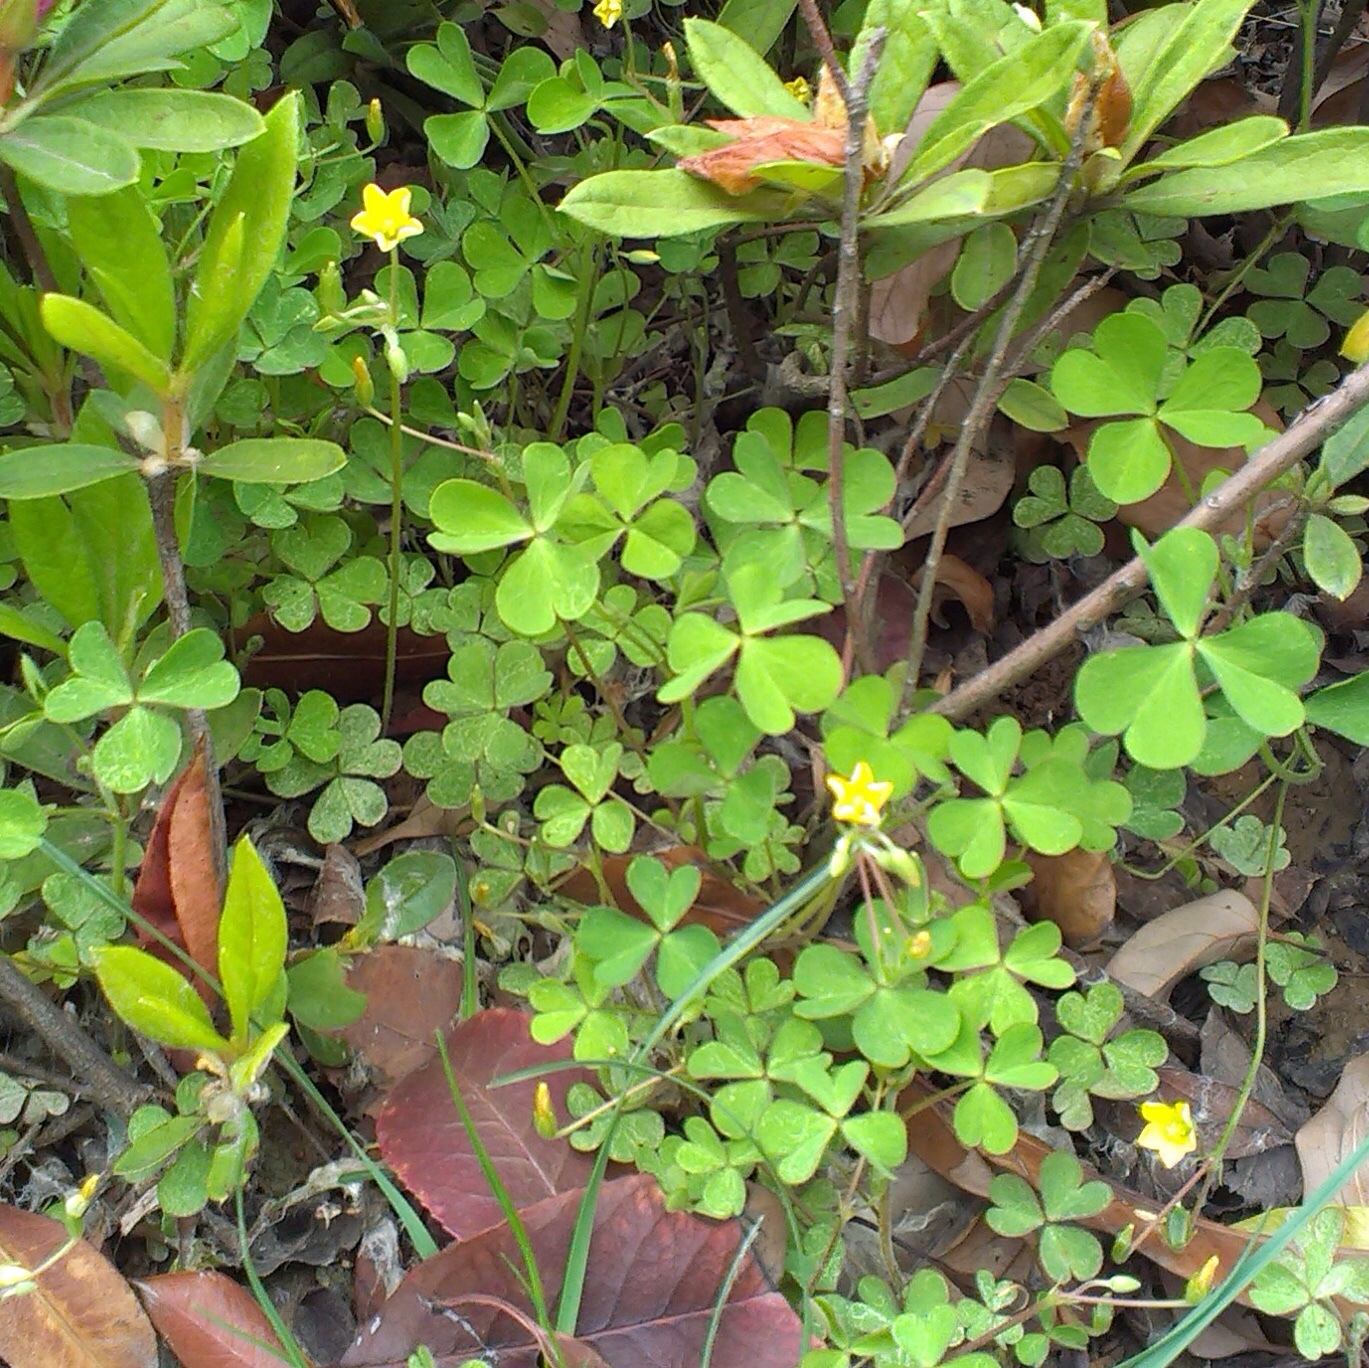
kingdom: Plantae
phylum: Tracheophyta
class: Magnoliopsida
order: Oxalidales
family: Oxalidaceae
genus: Oxalis
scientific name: Oxalis corniculata
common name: Procumbent yellow-sorrel
